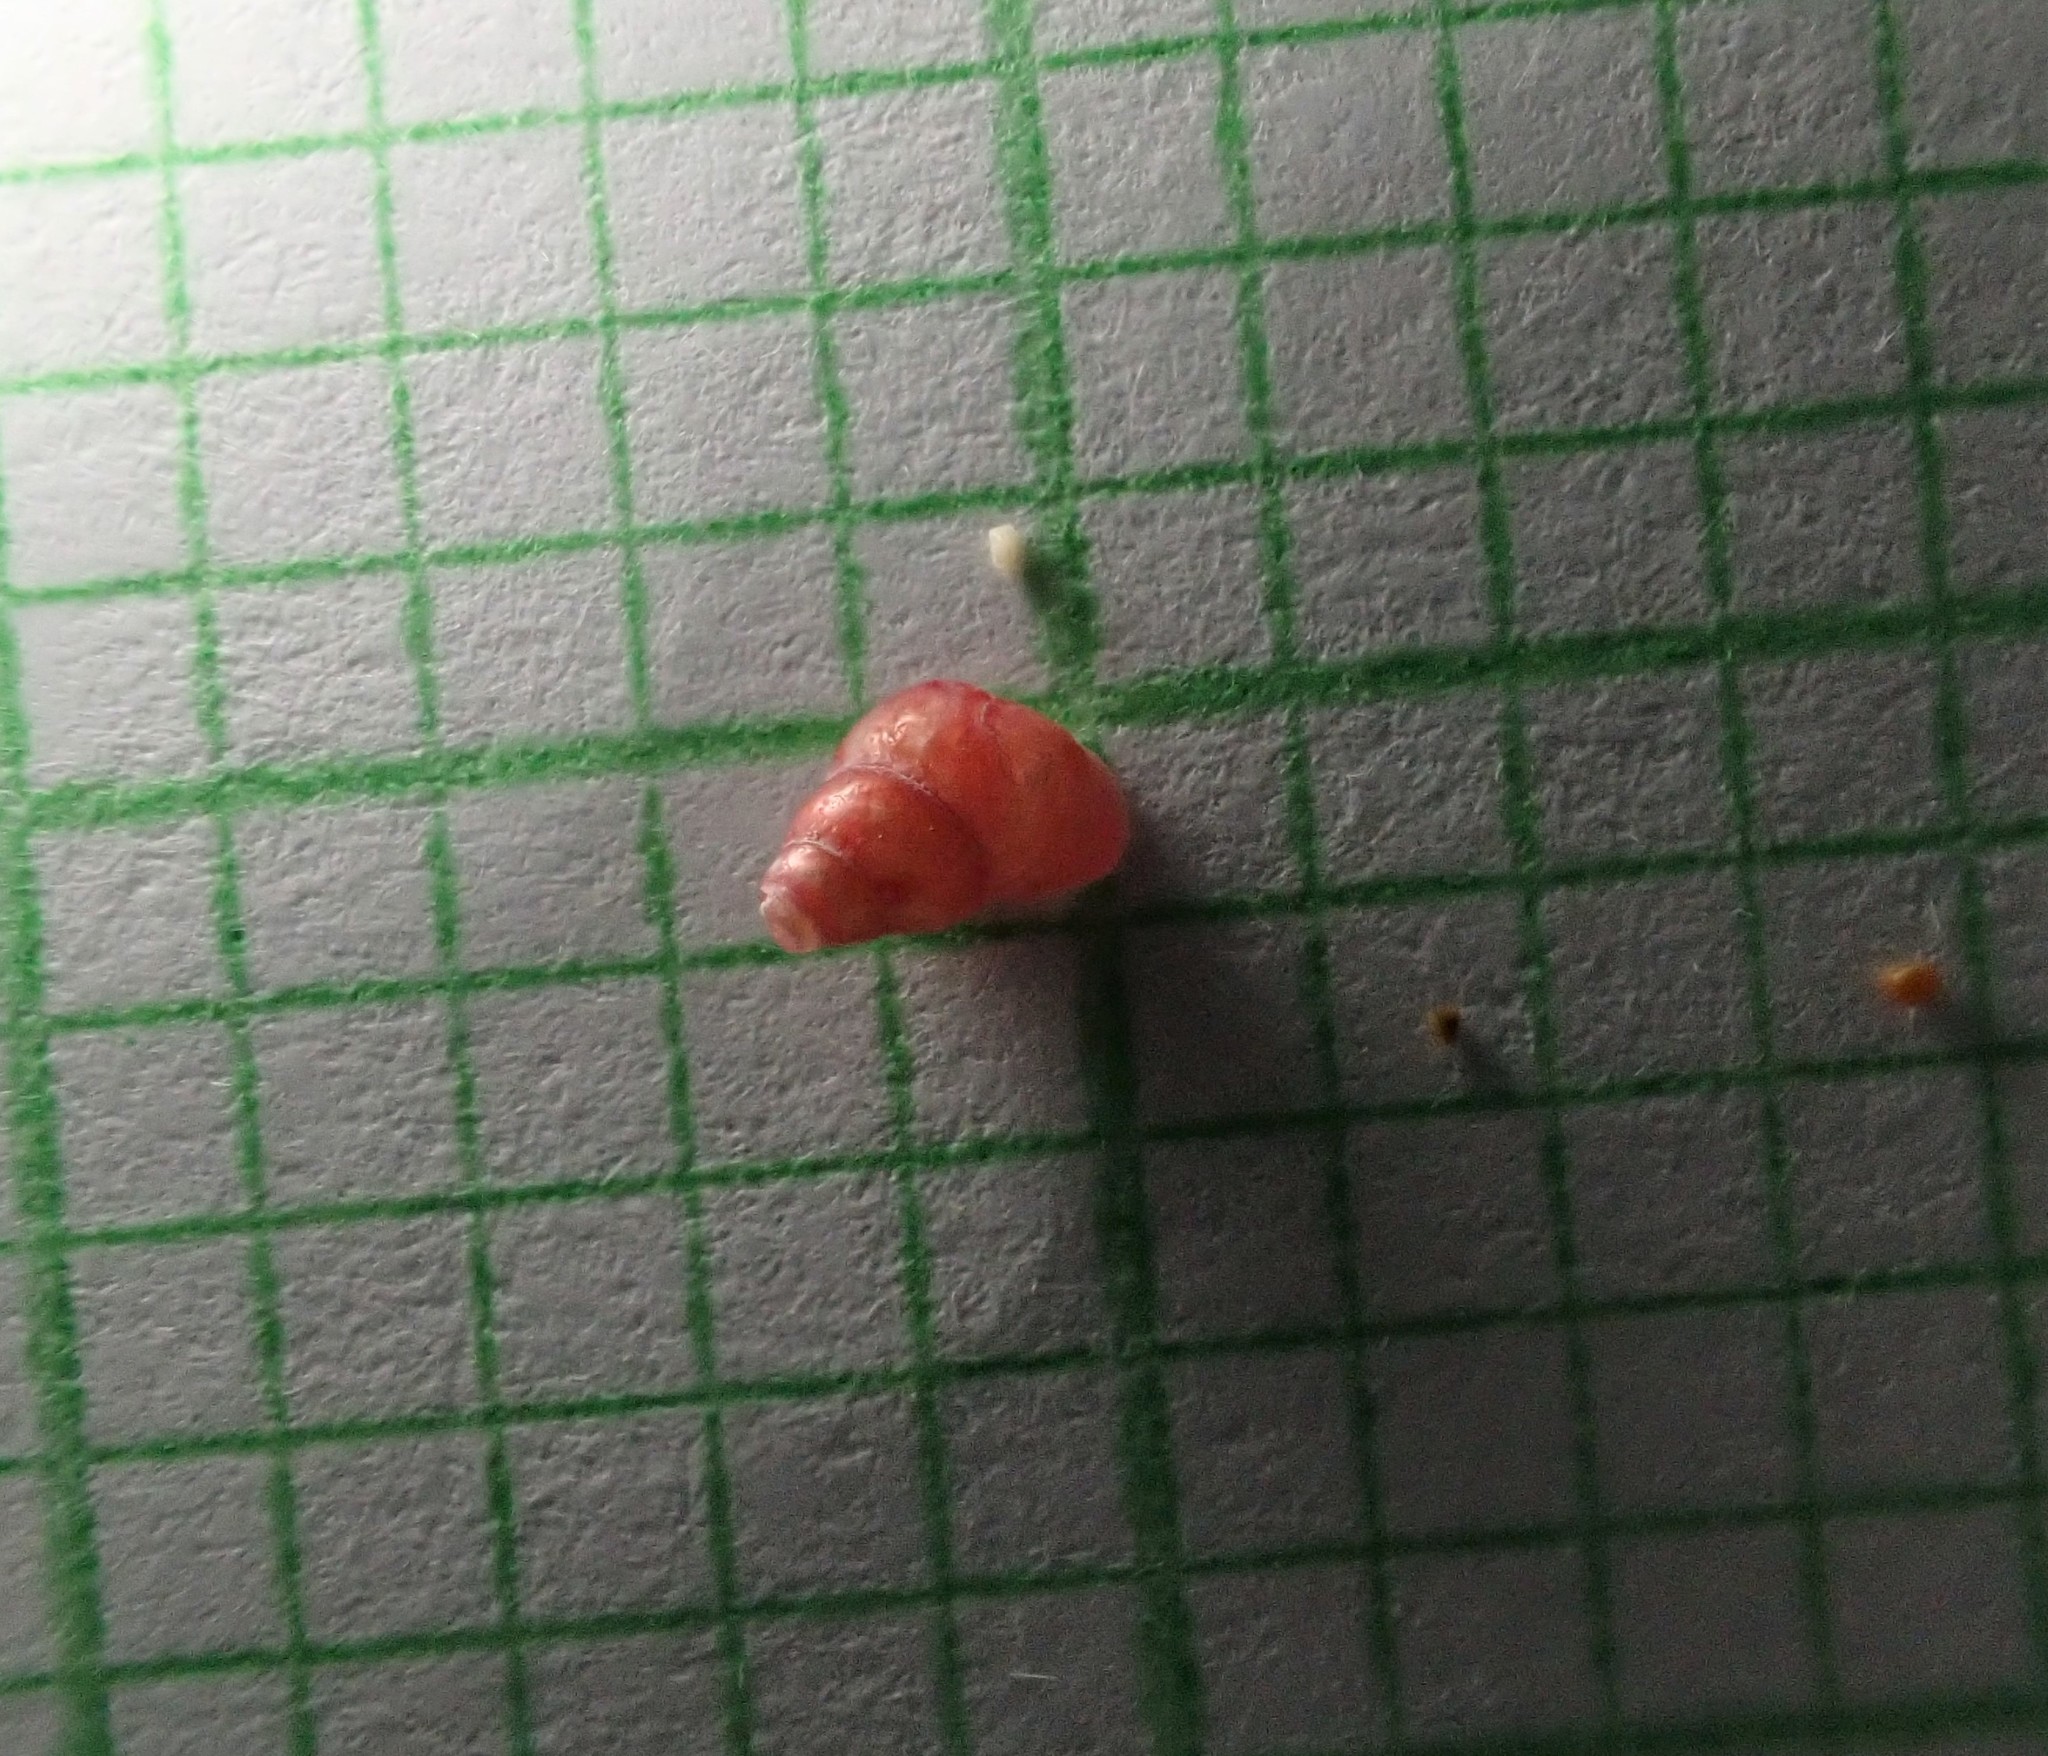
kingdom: Animalia
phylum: Mollusca
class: Gastropoda
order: Littorinimorpha
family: Eatoniellidae
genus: Eatoniella
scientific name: Eatoniella flammulata
